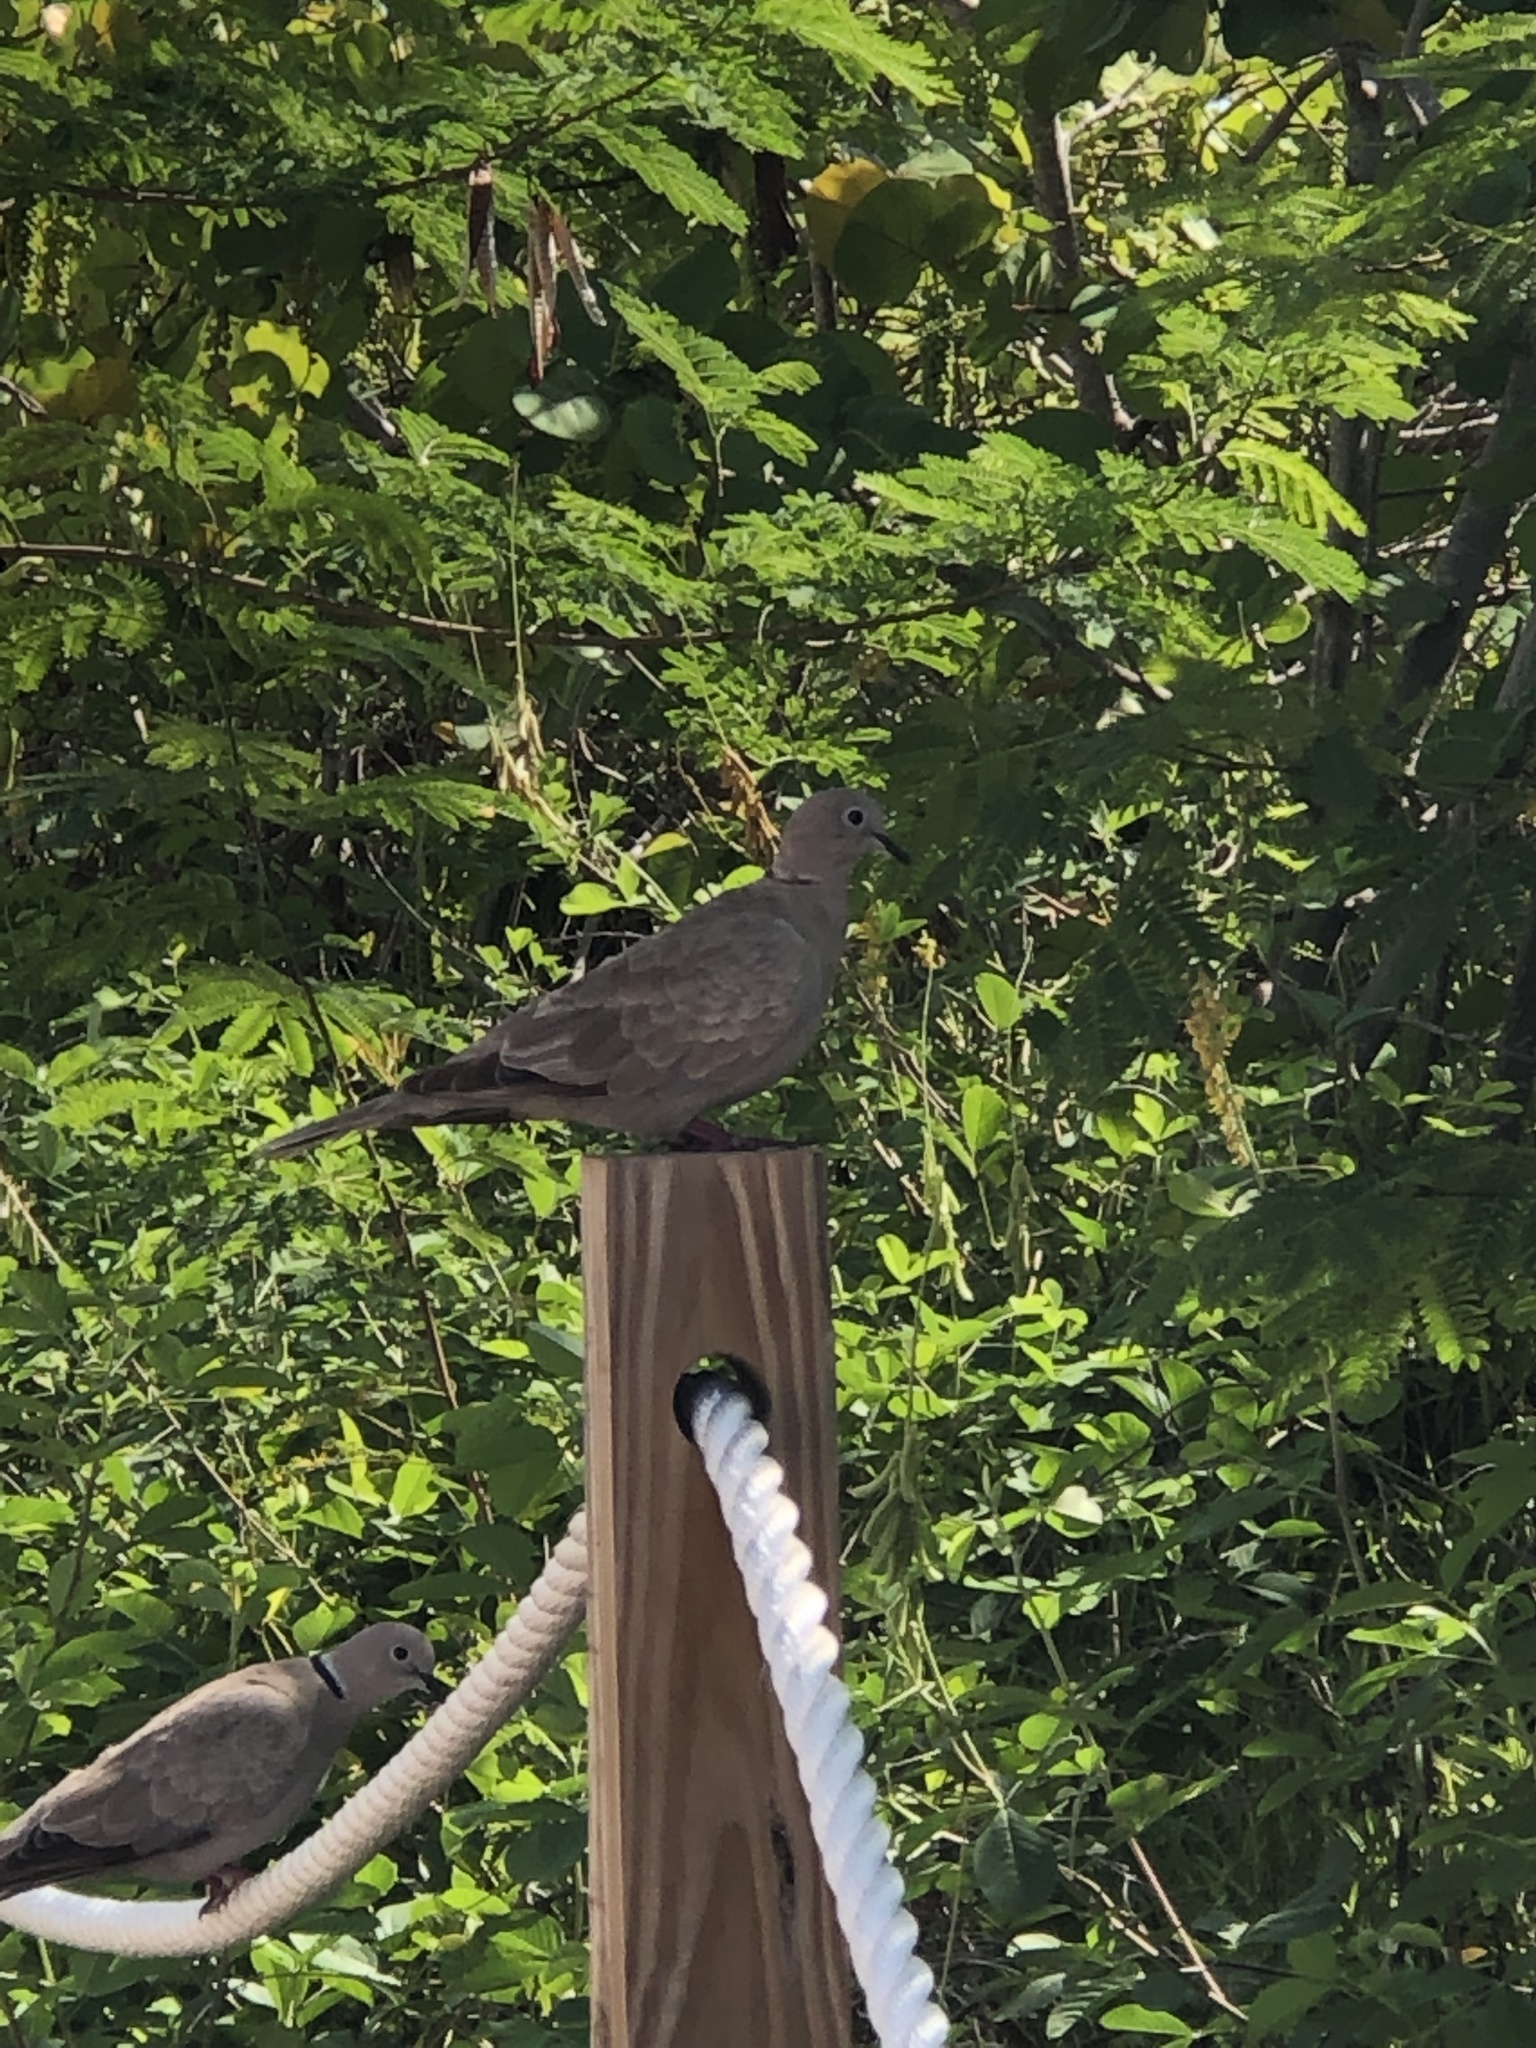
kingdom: Animalia
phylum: Chordata
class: Aves
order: Columbiformes
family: Columbidae
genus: Streptopelia
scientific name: Streptopelia decaocto
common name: Eurasian collared dove
